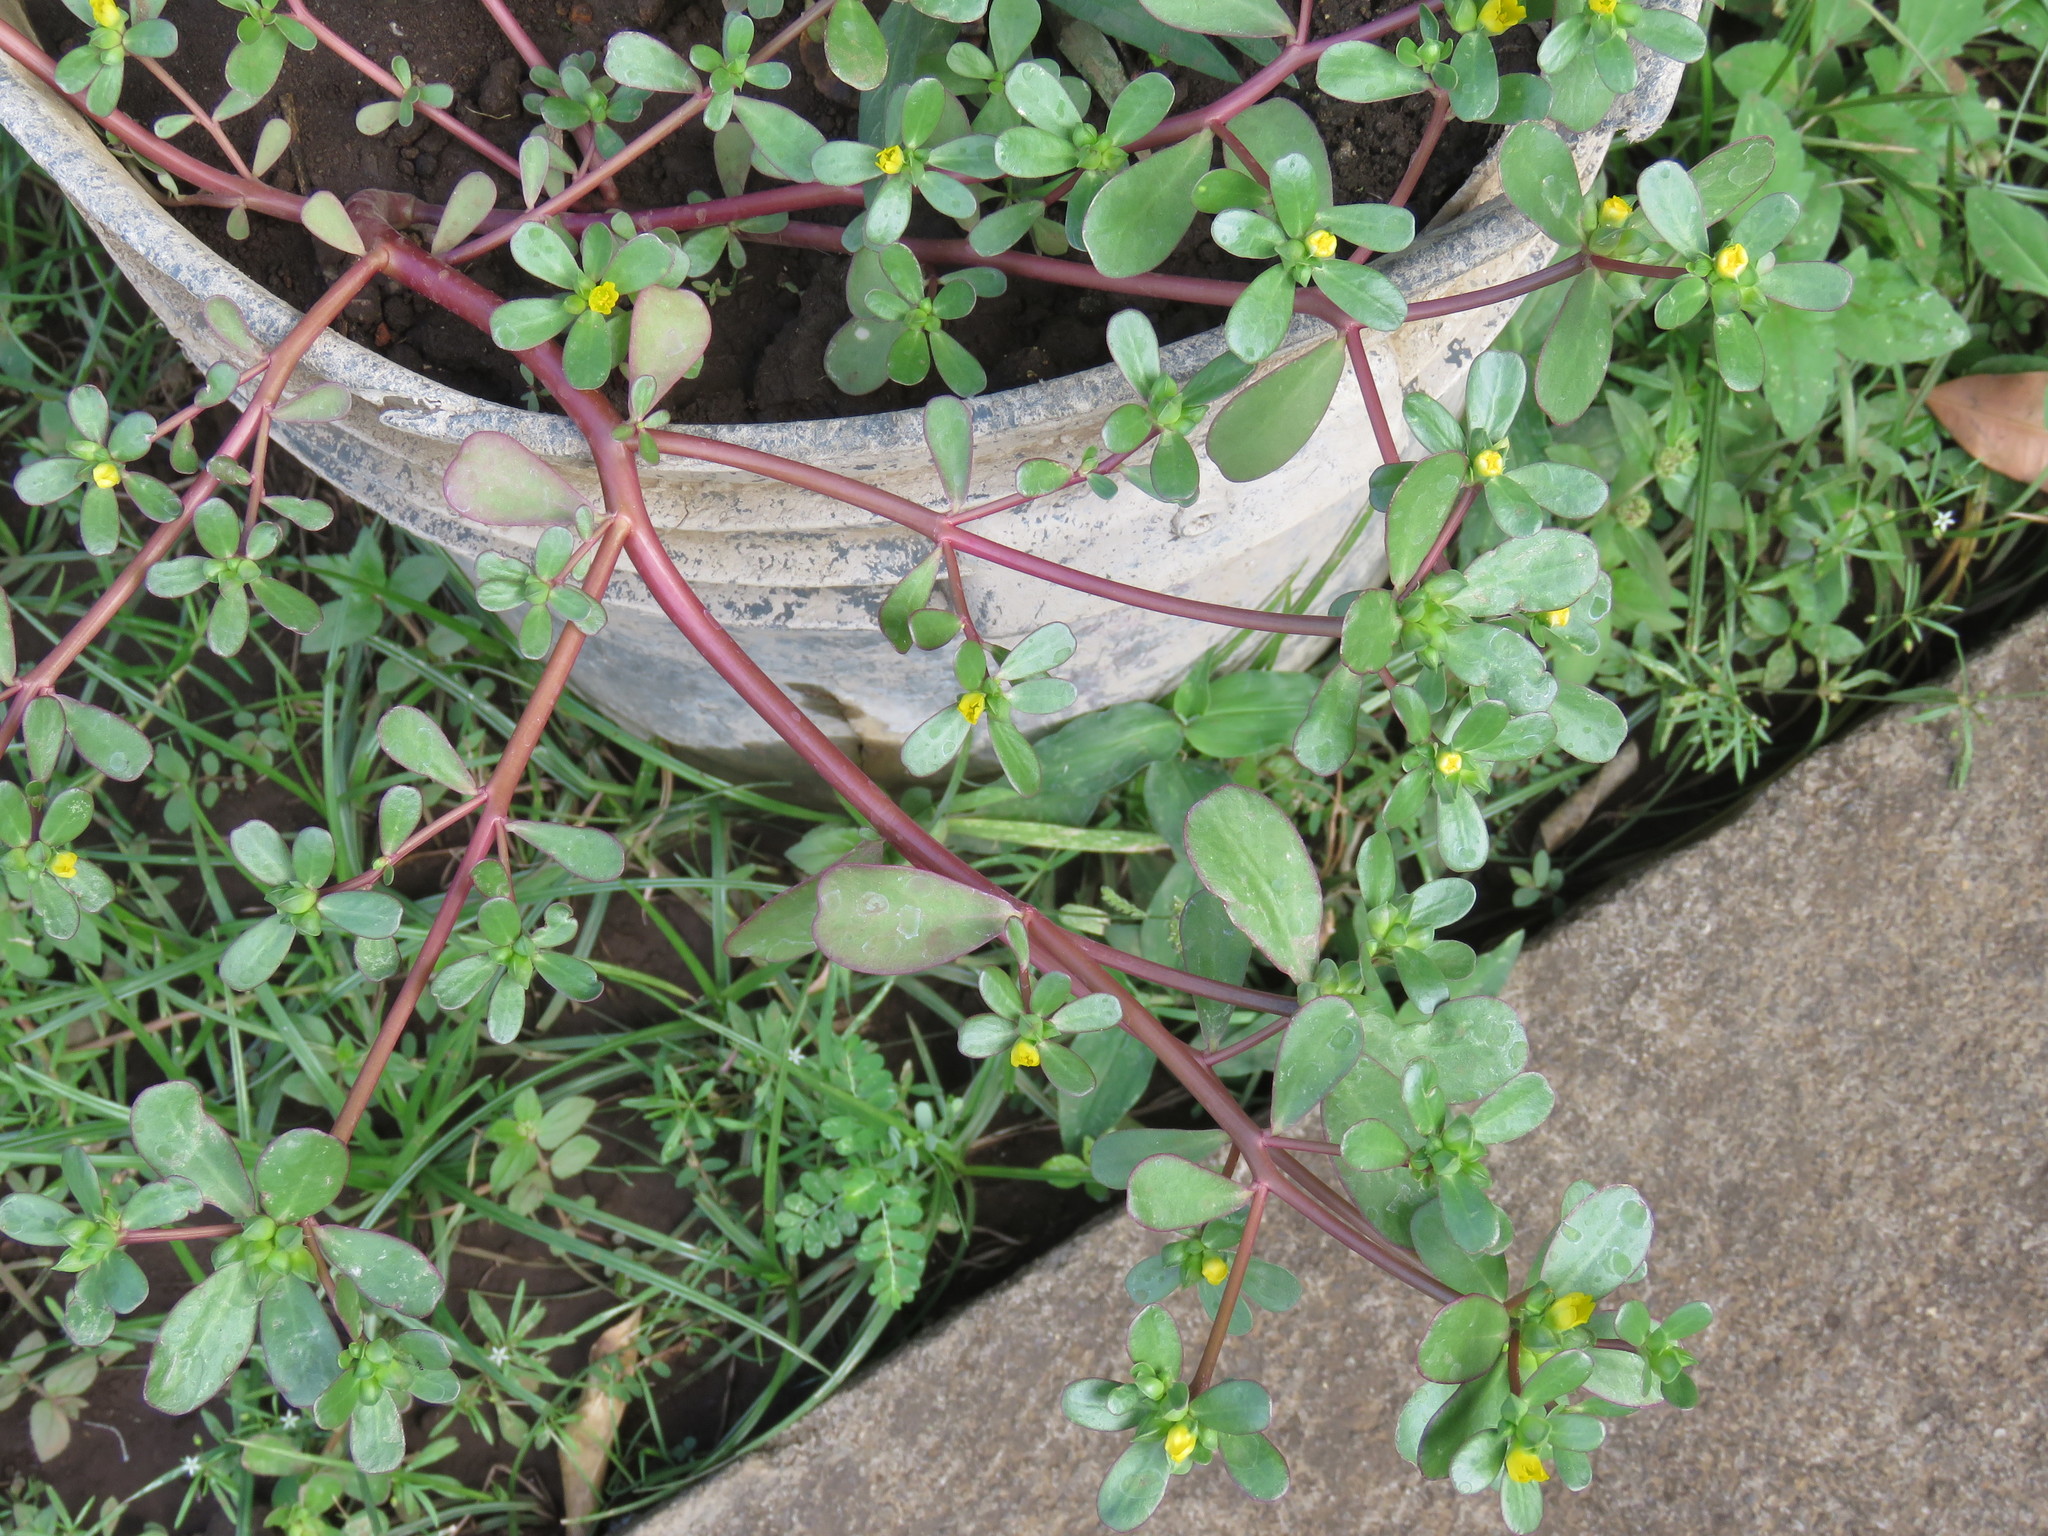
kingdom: Plantae
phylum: Tracheophyta
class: Magnoliopsida
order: Caryophyllales
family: Portulacaceae
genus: Portulaca
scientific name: Portulaca oleracea
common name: Common purslane
